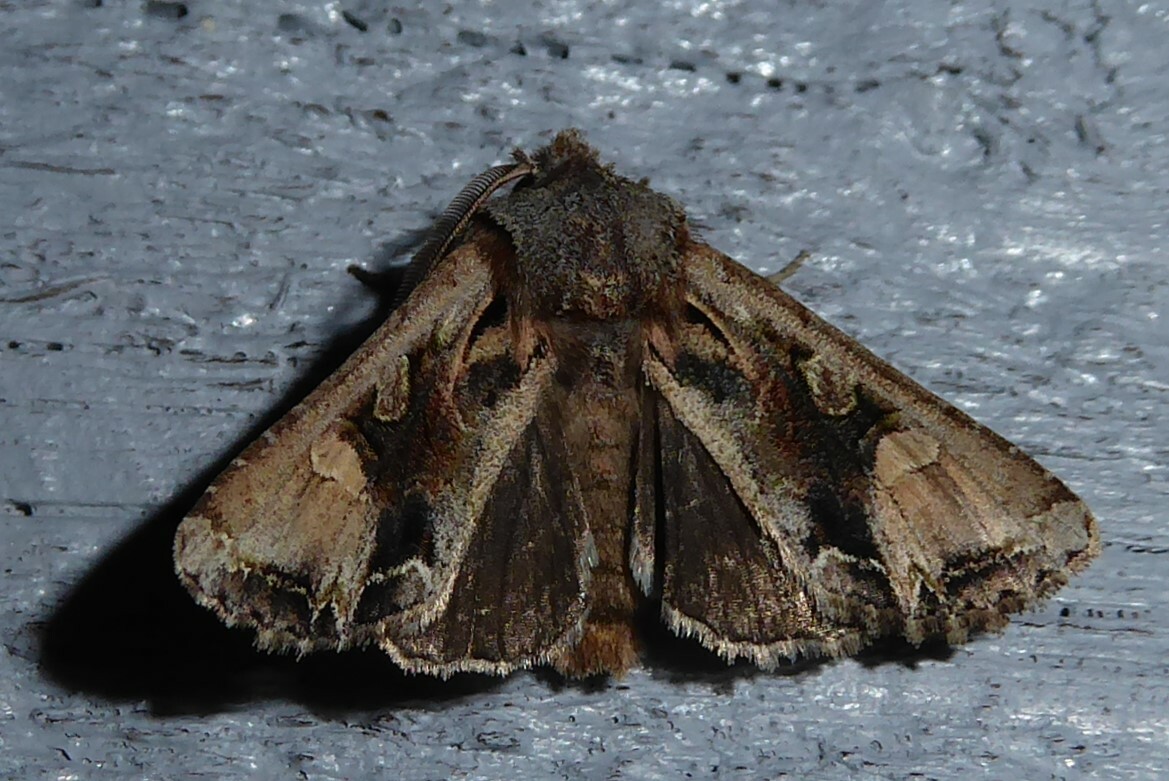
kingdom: Animalia
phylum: Arthropoda
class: Insecta
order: Lepidoptera
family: Noctuidae
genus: Ichneutica
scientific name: Ichneutica
